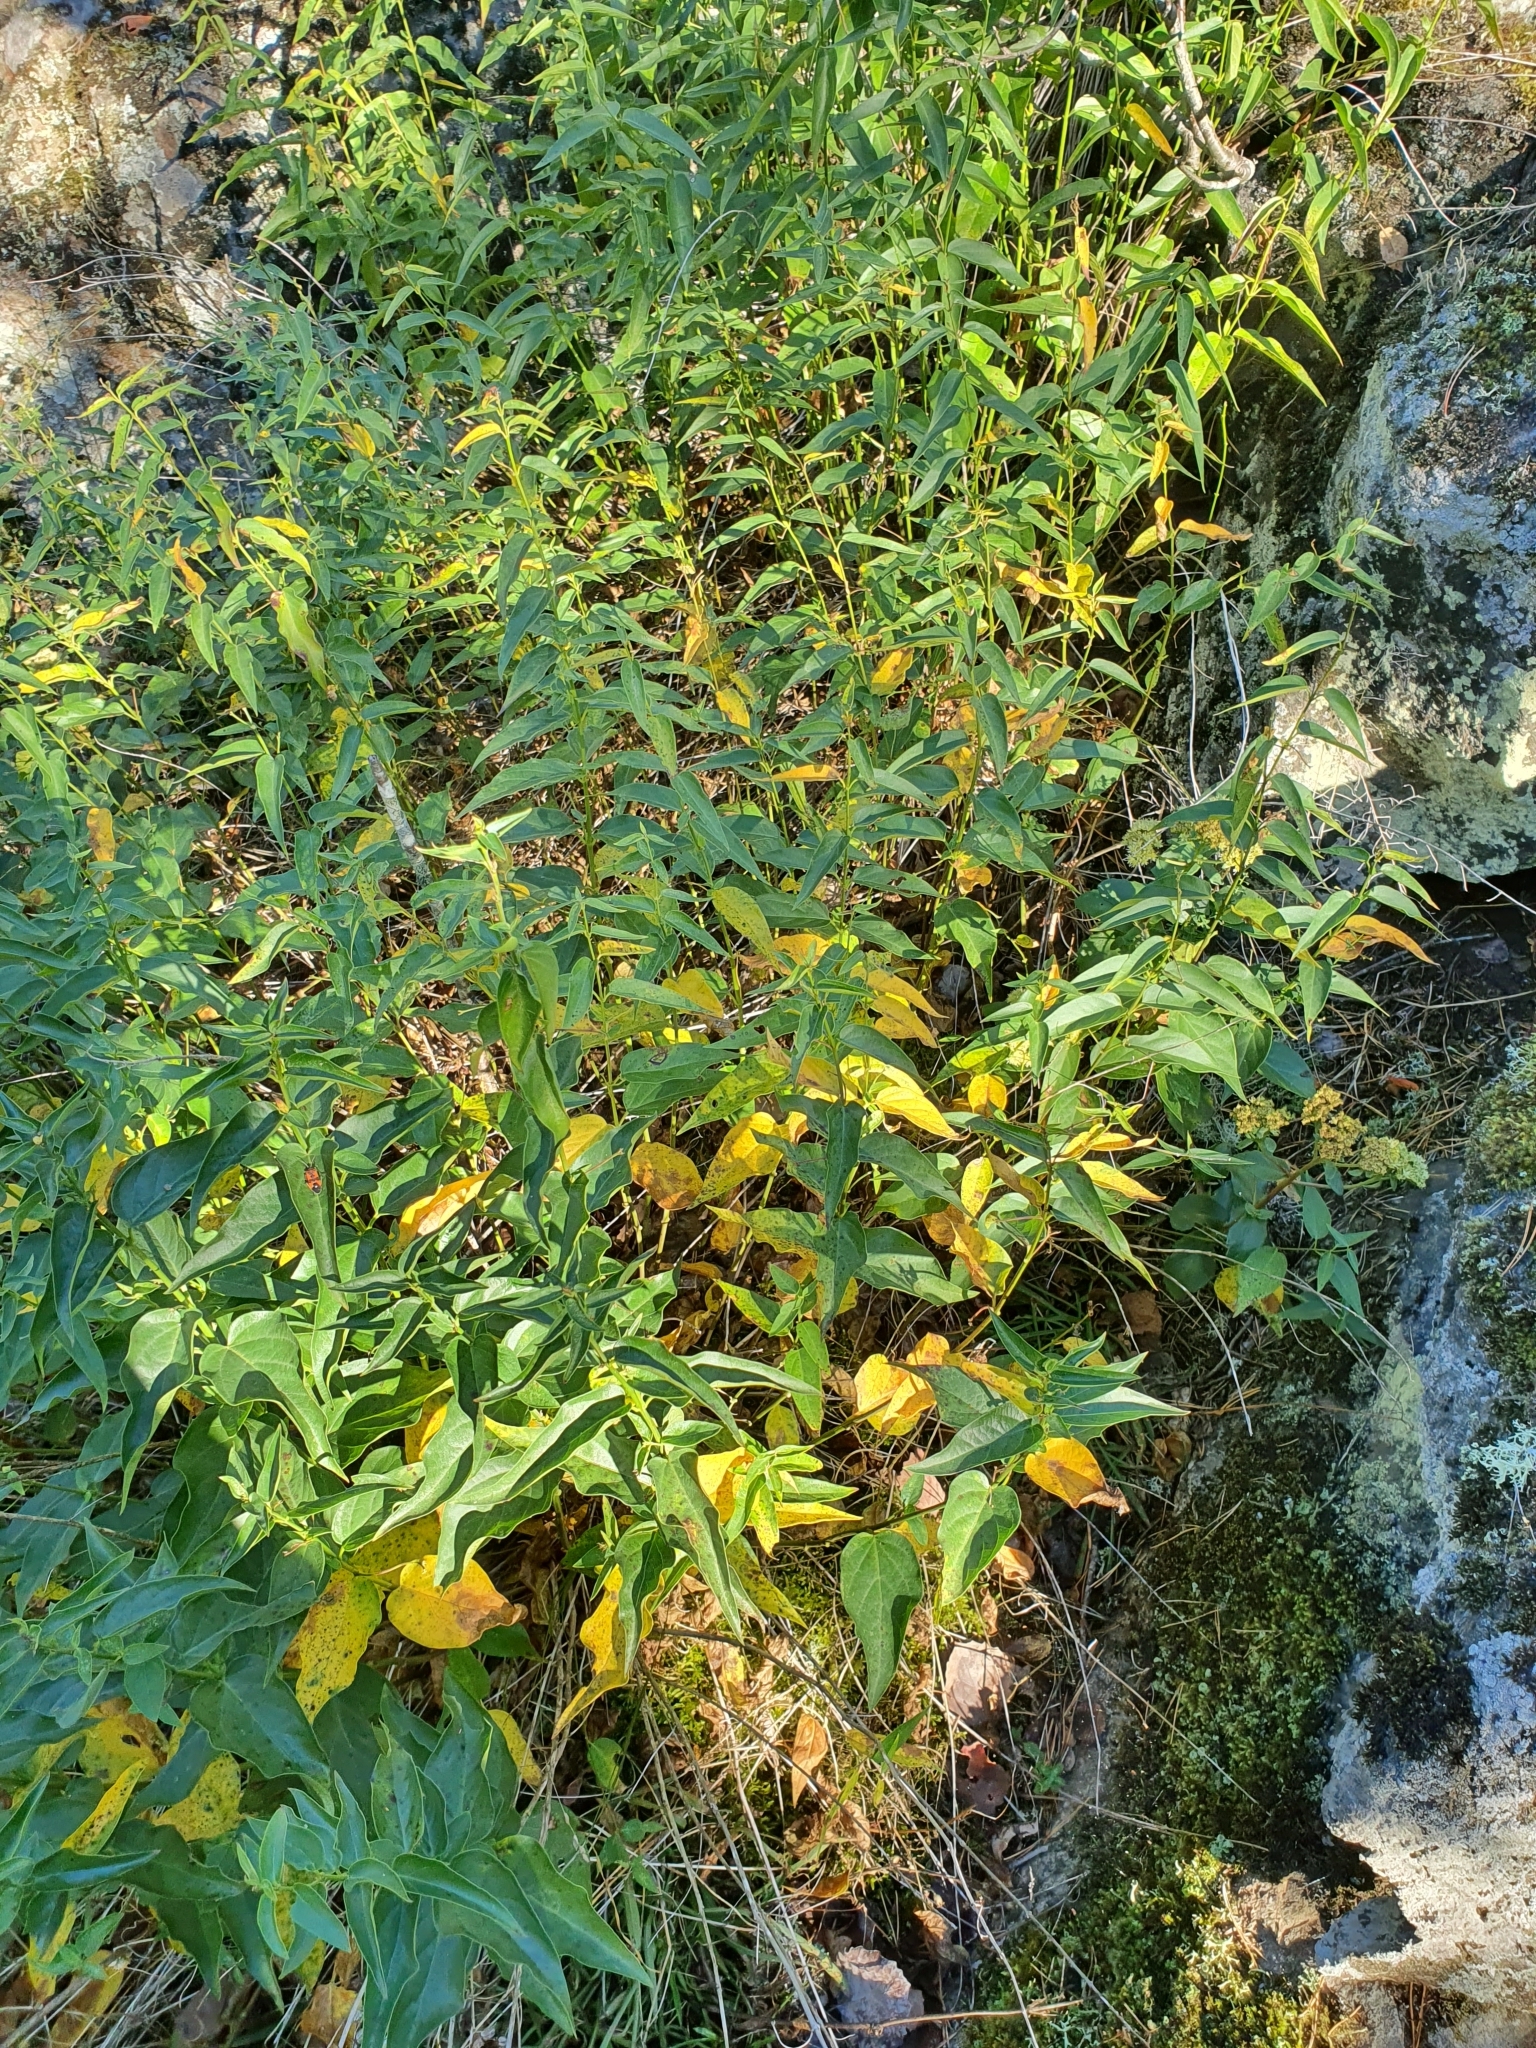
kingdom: Plantae
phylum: Tracheophyta
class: Magnoliopsida
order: Gentianales
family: Apocynaceae
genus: Vincetoxicum
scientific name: Vincetoxicum hirundinaria
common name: White swallowwort
